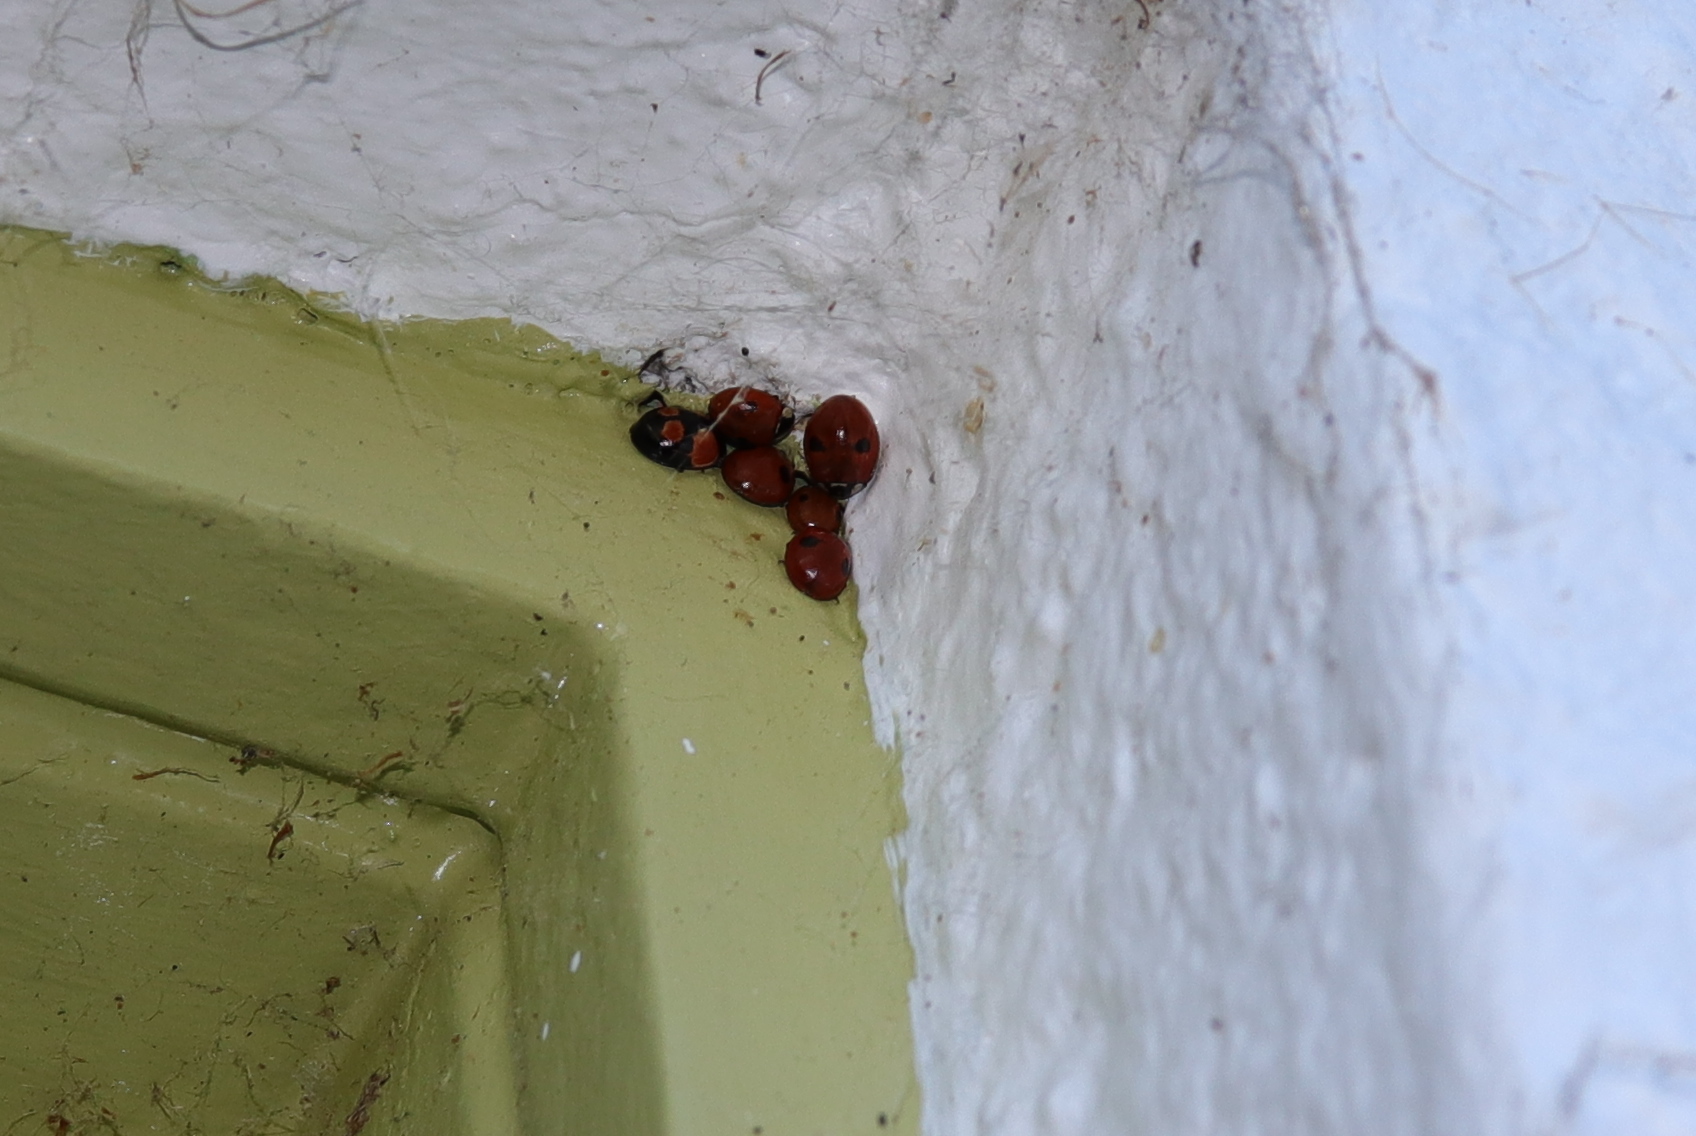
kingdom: Animalia
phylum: Arthropoda
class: Insecta
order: Coleoptera
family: Coccinellidae
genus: Adalia
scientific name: Adalia bipunctata
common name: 2-spot ladybird
